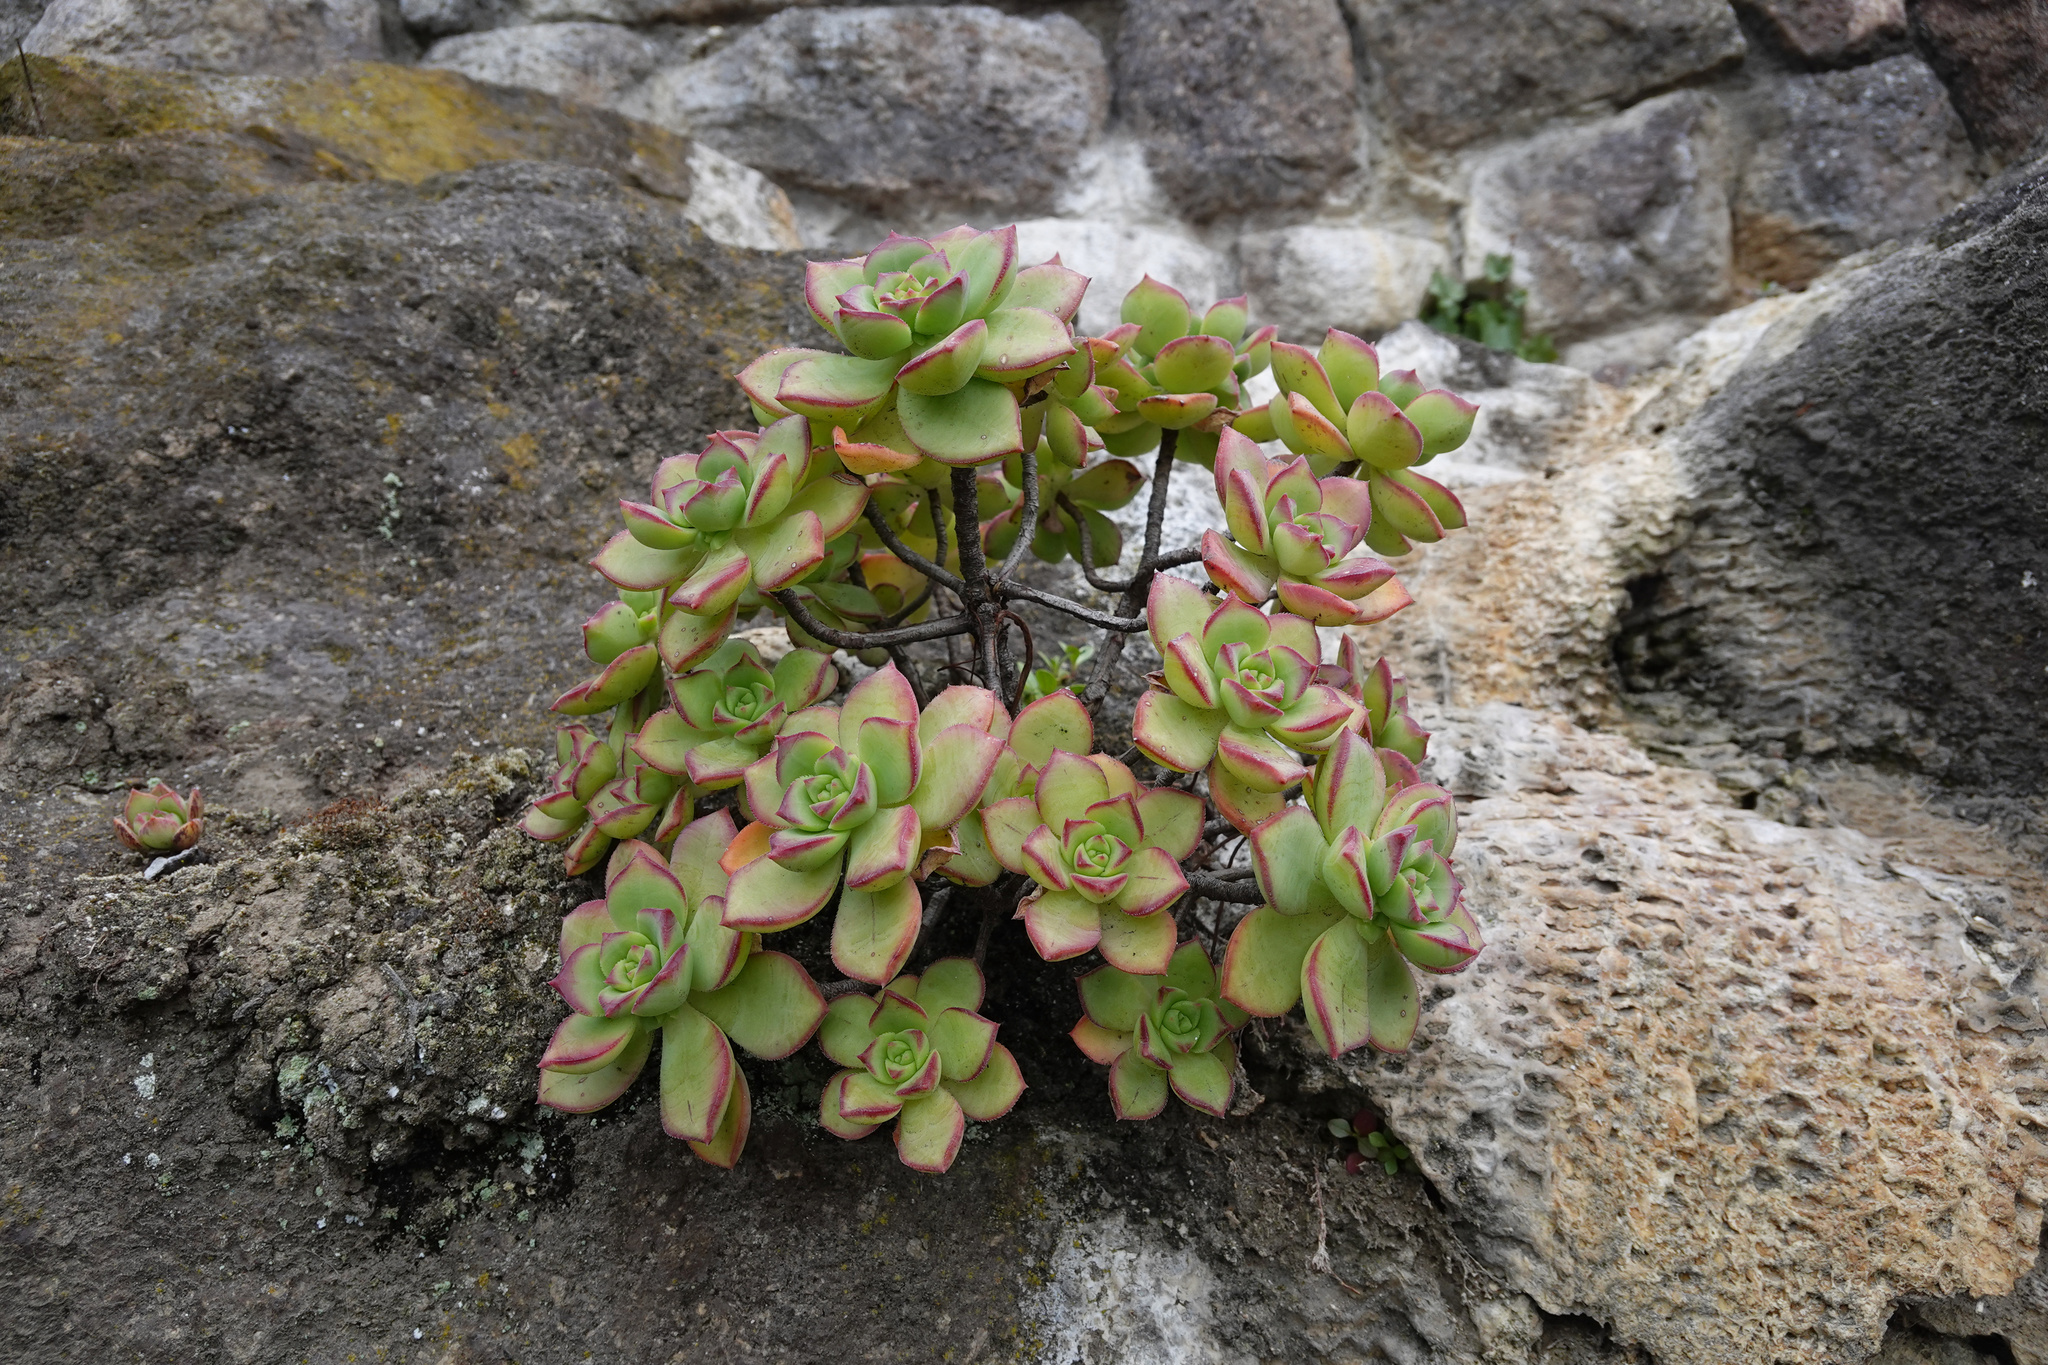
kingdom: Plantae
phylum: Tracheophyta
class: Magnoliopsida
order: Saxifragales
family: Crassulaceae
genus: Aeonium
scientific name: Aeonium haworthii
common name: Haworth's aeonium
